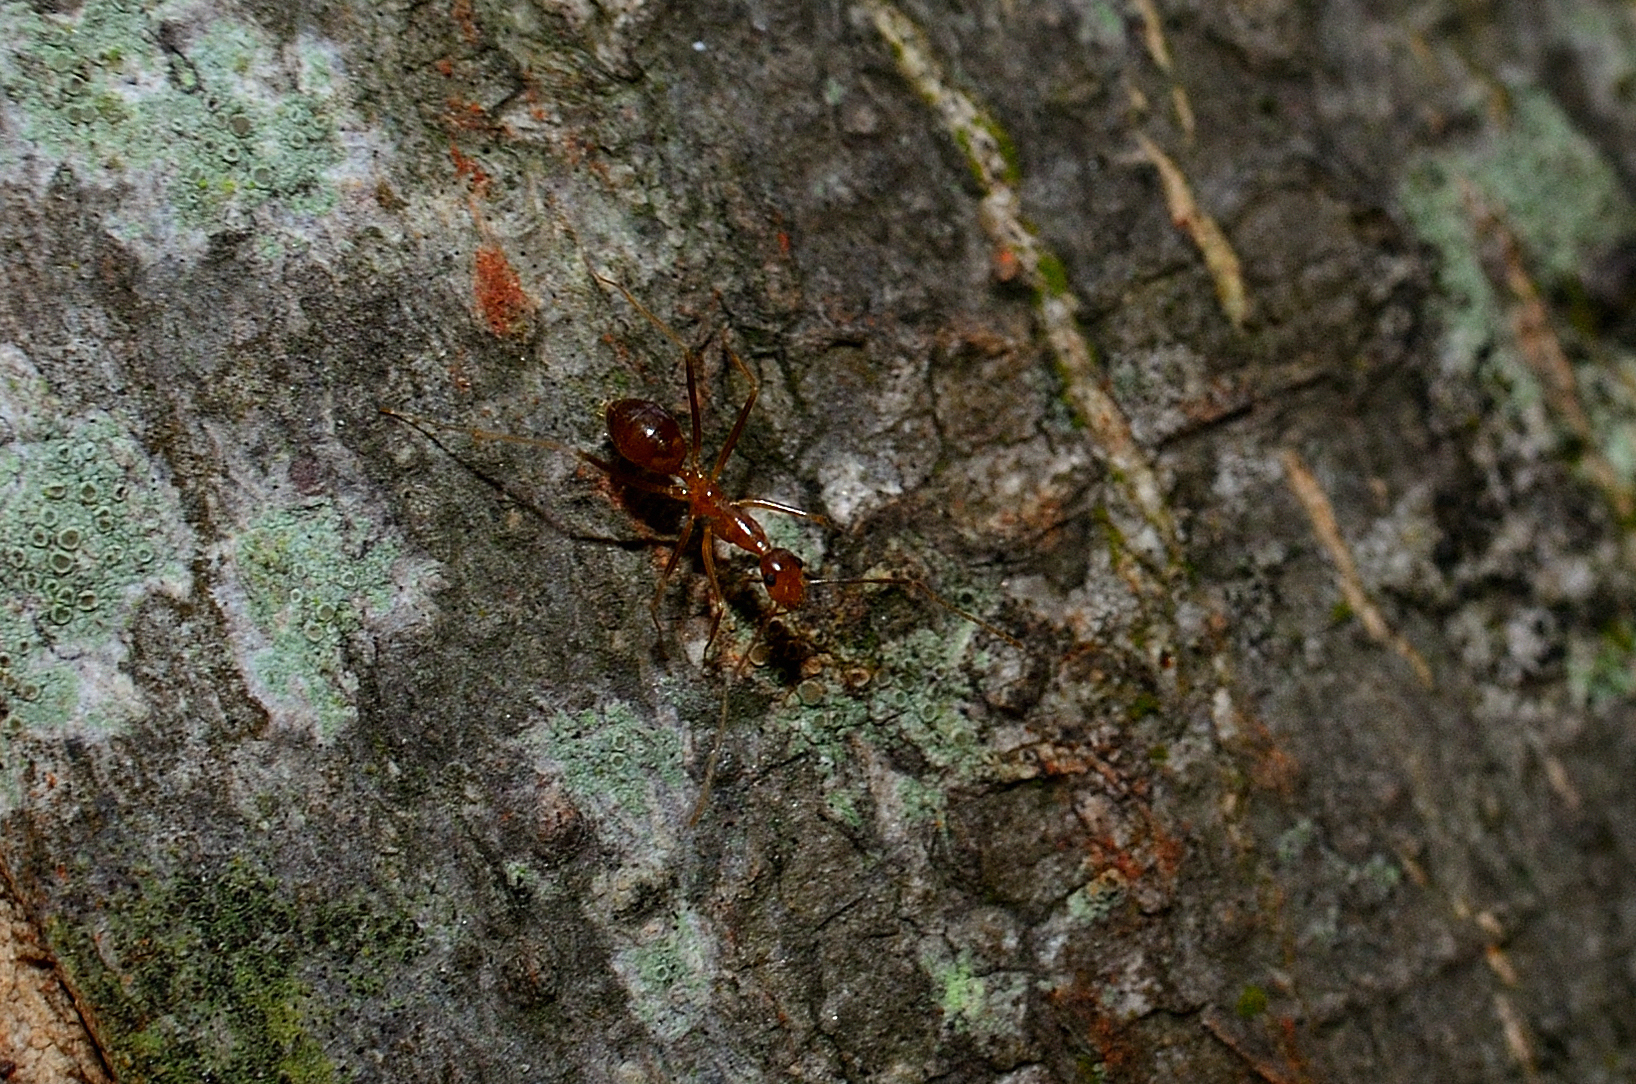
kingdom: Animalia
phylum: Arthropoda
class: Insecta
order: Hymenoptera
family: Formicidae
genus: Anoplolepis
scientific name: Anoplolepis gracilipes
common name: Ant
